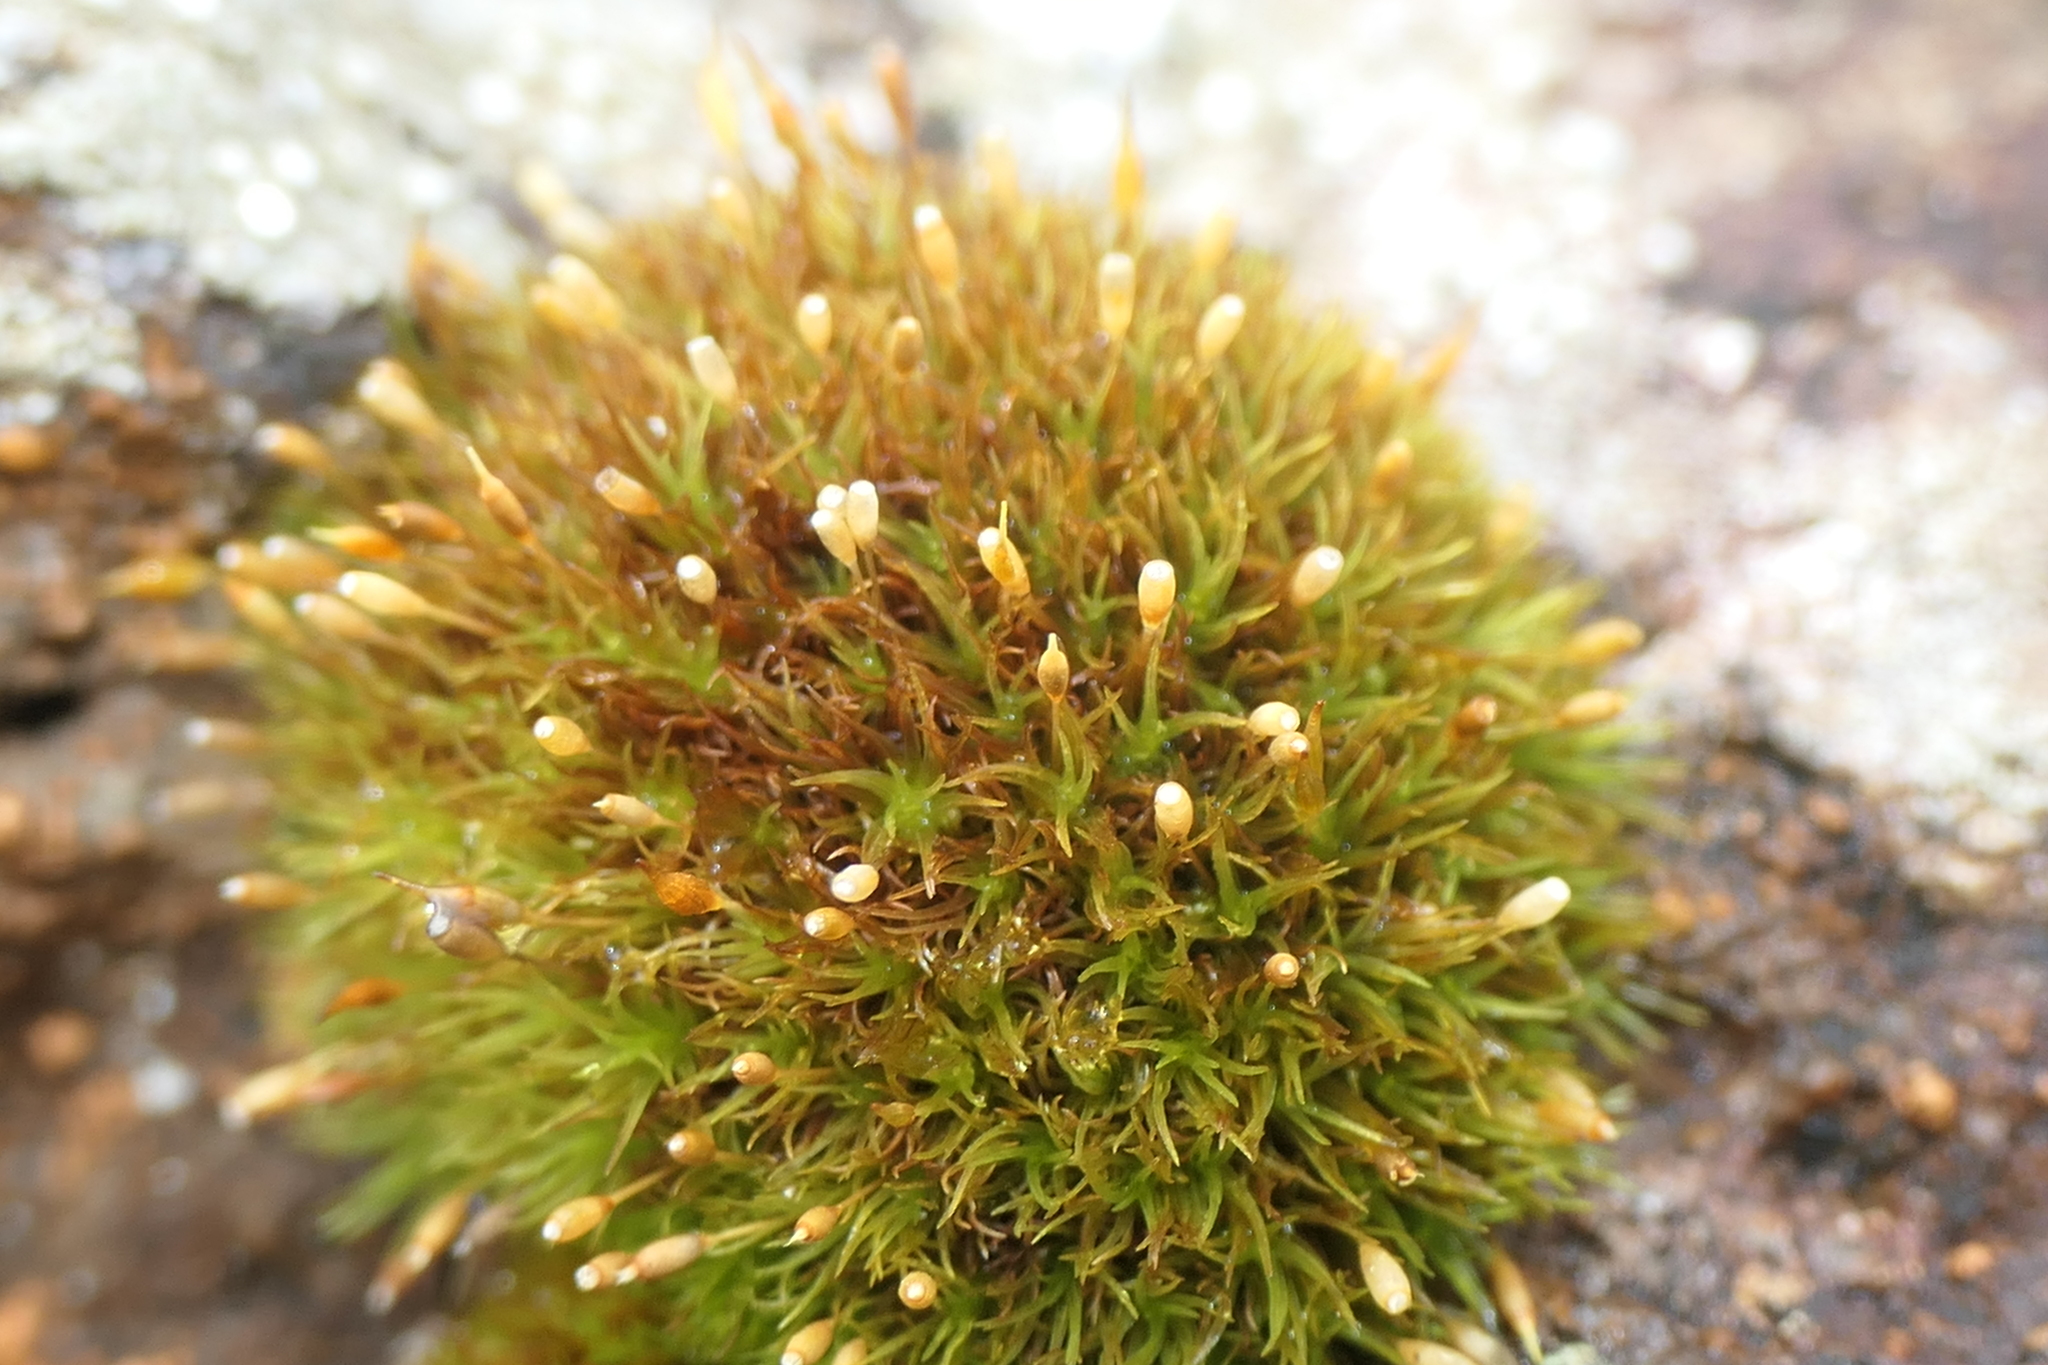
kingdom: Plantae
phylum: Bryophyta
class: Bryopsida
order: Grimmiales
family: Ptychomitriaceae
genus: Ptychomitrium
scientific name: Ptychomitrium polyphyllum
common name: Greater pincushion
